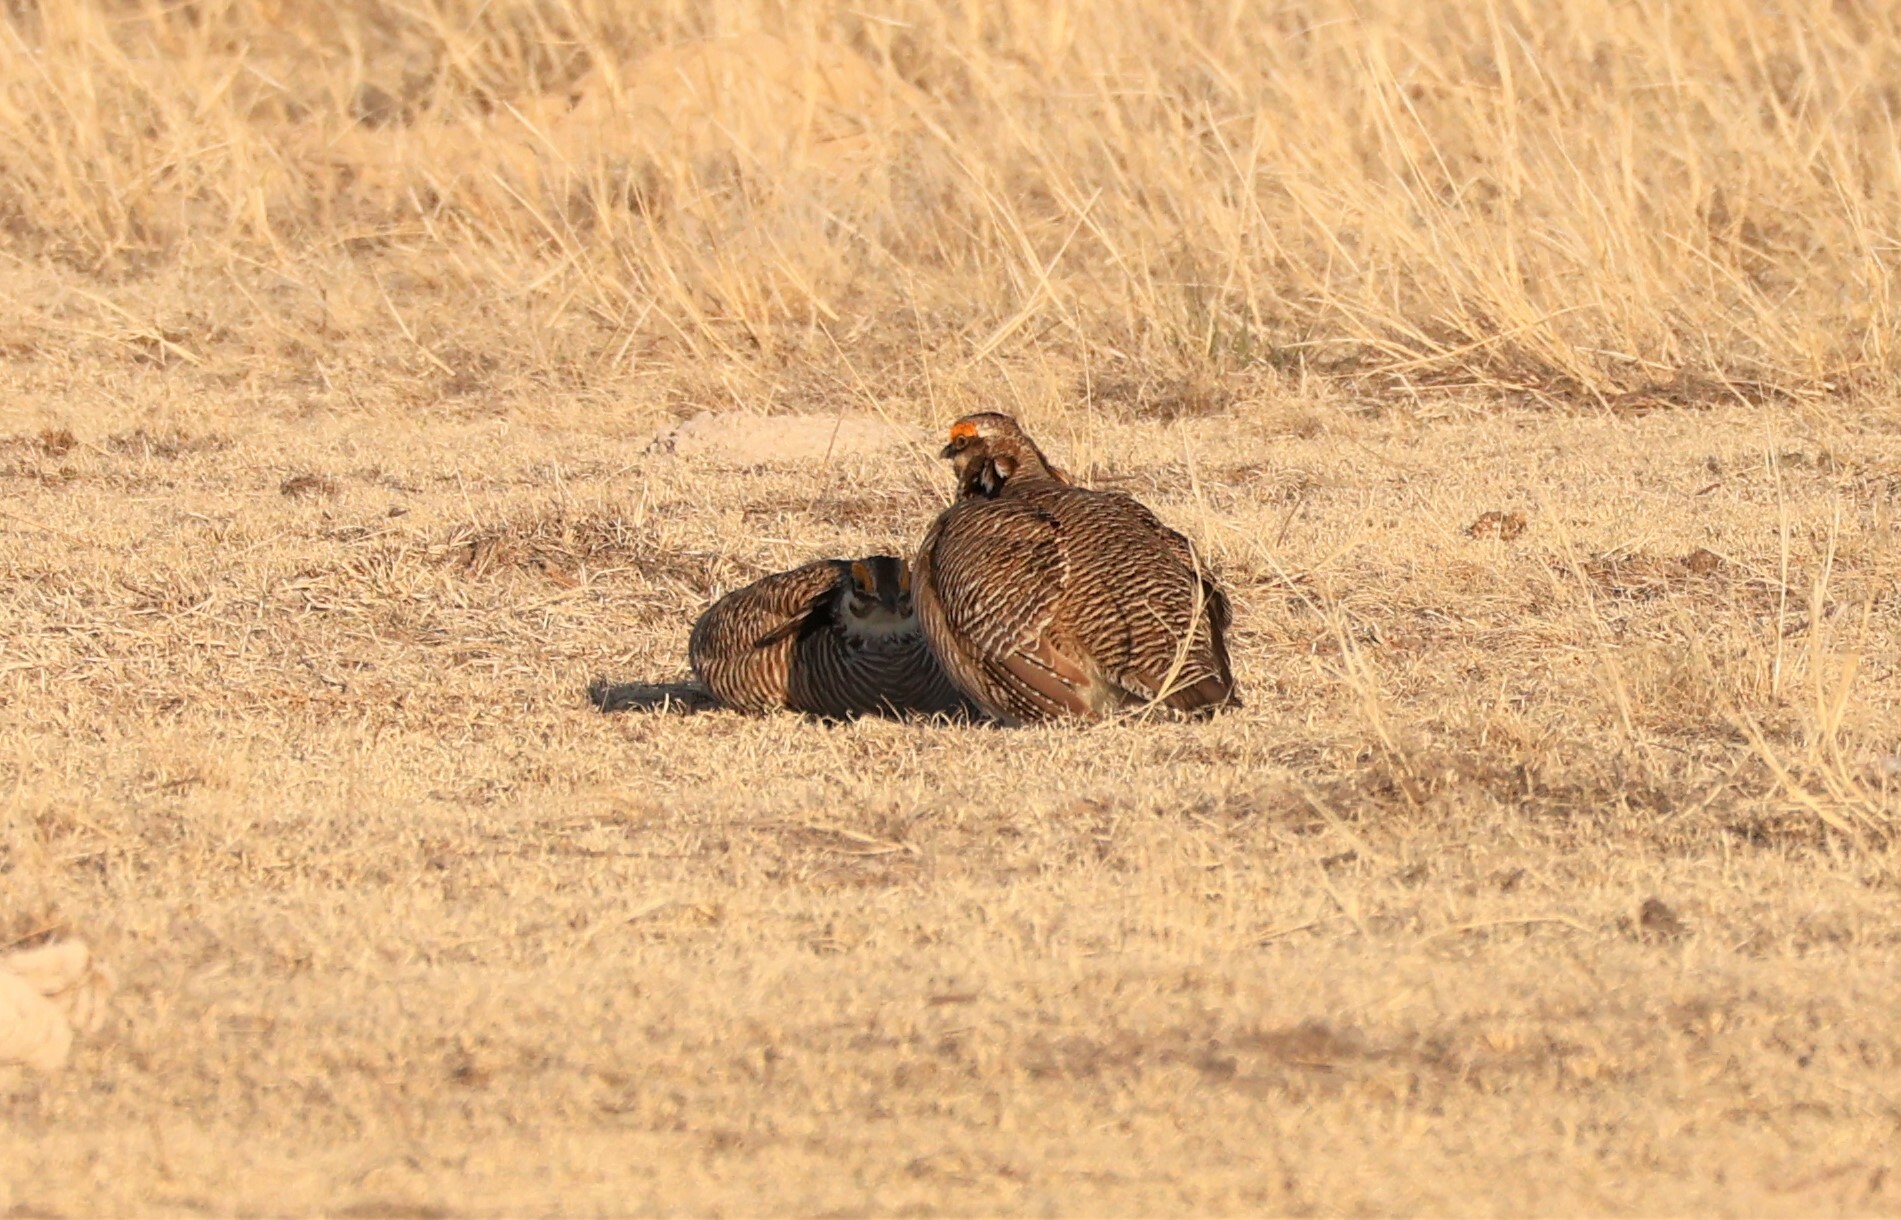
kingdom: Animalia
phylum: Chordata
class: Aves
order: Galliformes
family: Phasianidae
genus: Tympanuchus
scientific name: Tympanuchus pallidicinctus
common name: Lesser prairie chicken
